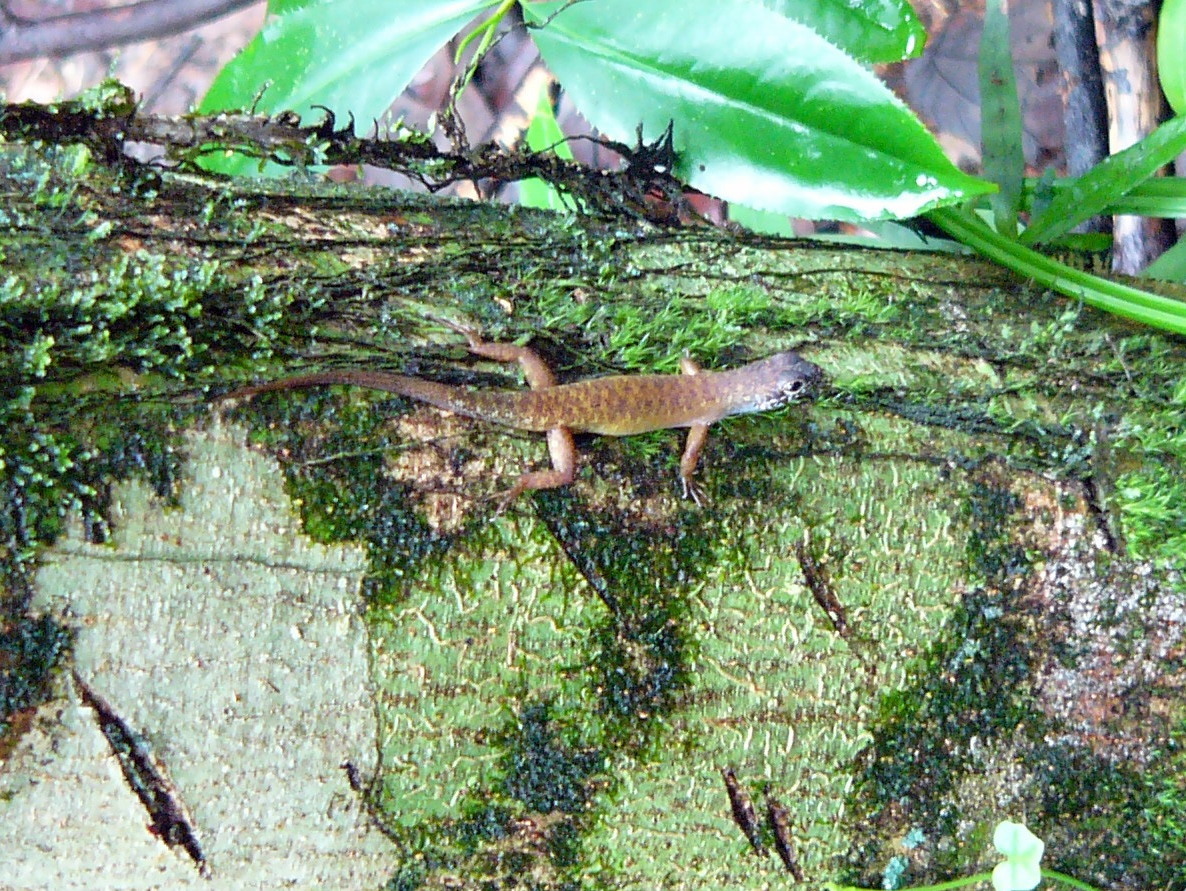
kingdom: Animalia
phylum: Chordata
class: Squamata
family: Scincidae
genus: Sphenomorphus
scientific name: Sphenomorphus sabanus
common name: Sabah slender skink
